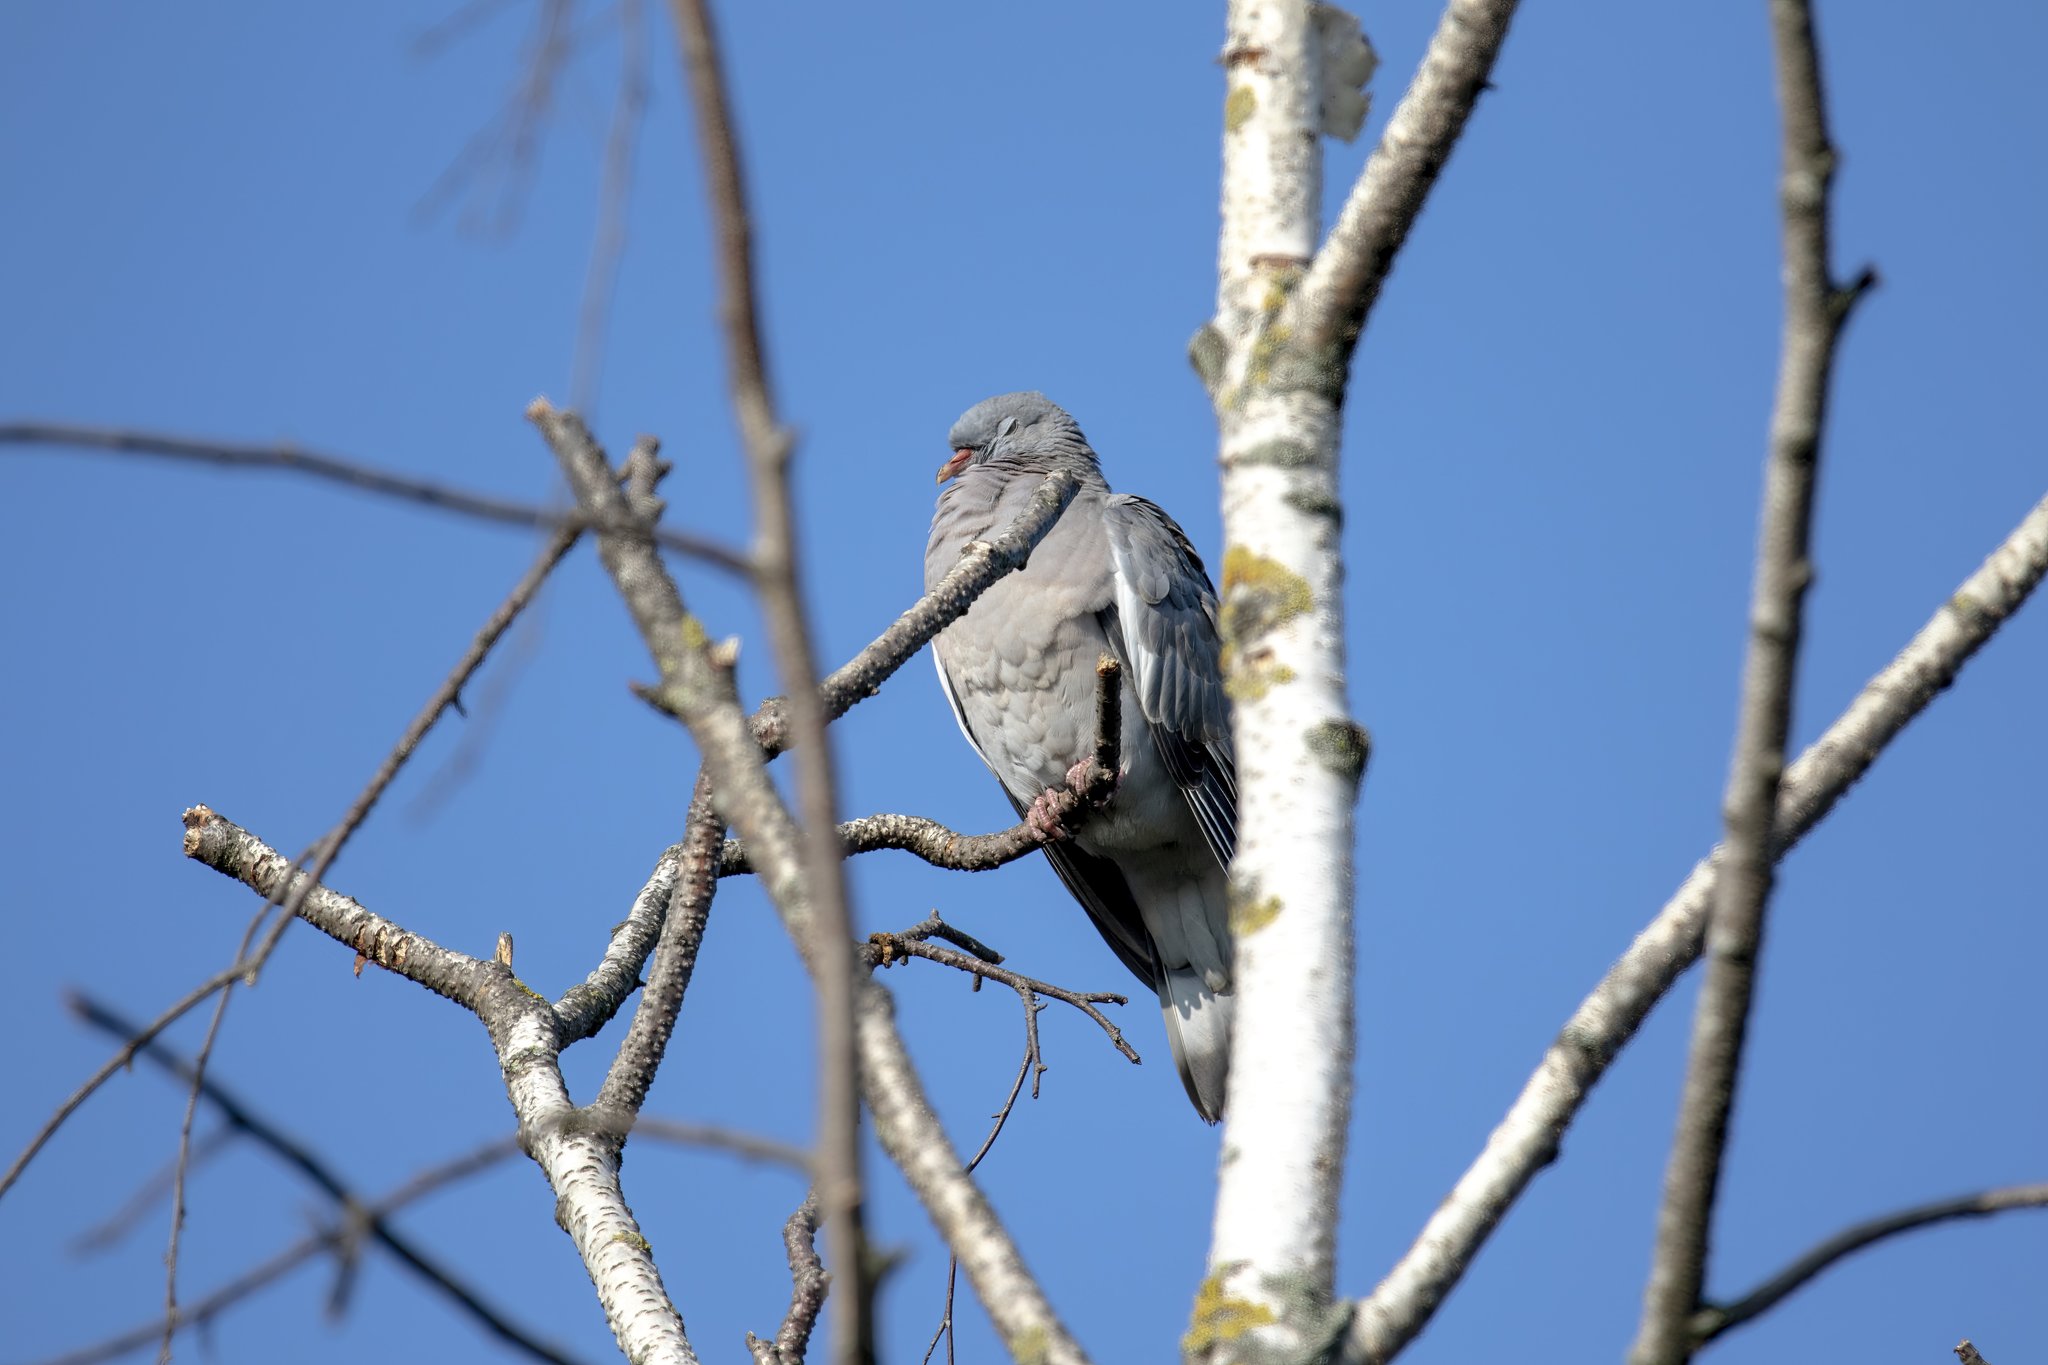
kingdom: Animalia
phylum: Chordata
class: Aves
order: Columbiformes
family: Columbidae
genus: Columba
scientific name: Columba palumbus
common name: Common wood pigeon
